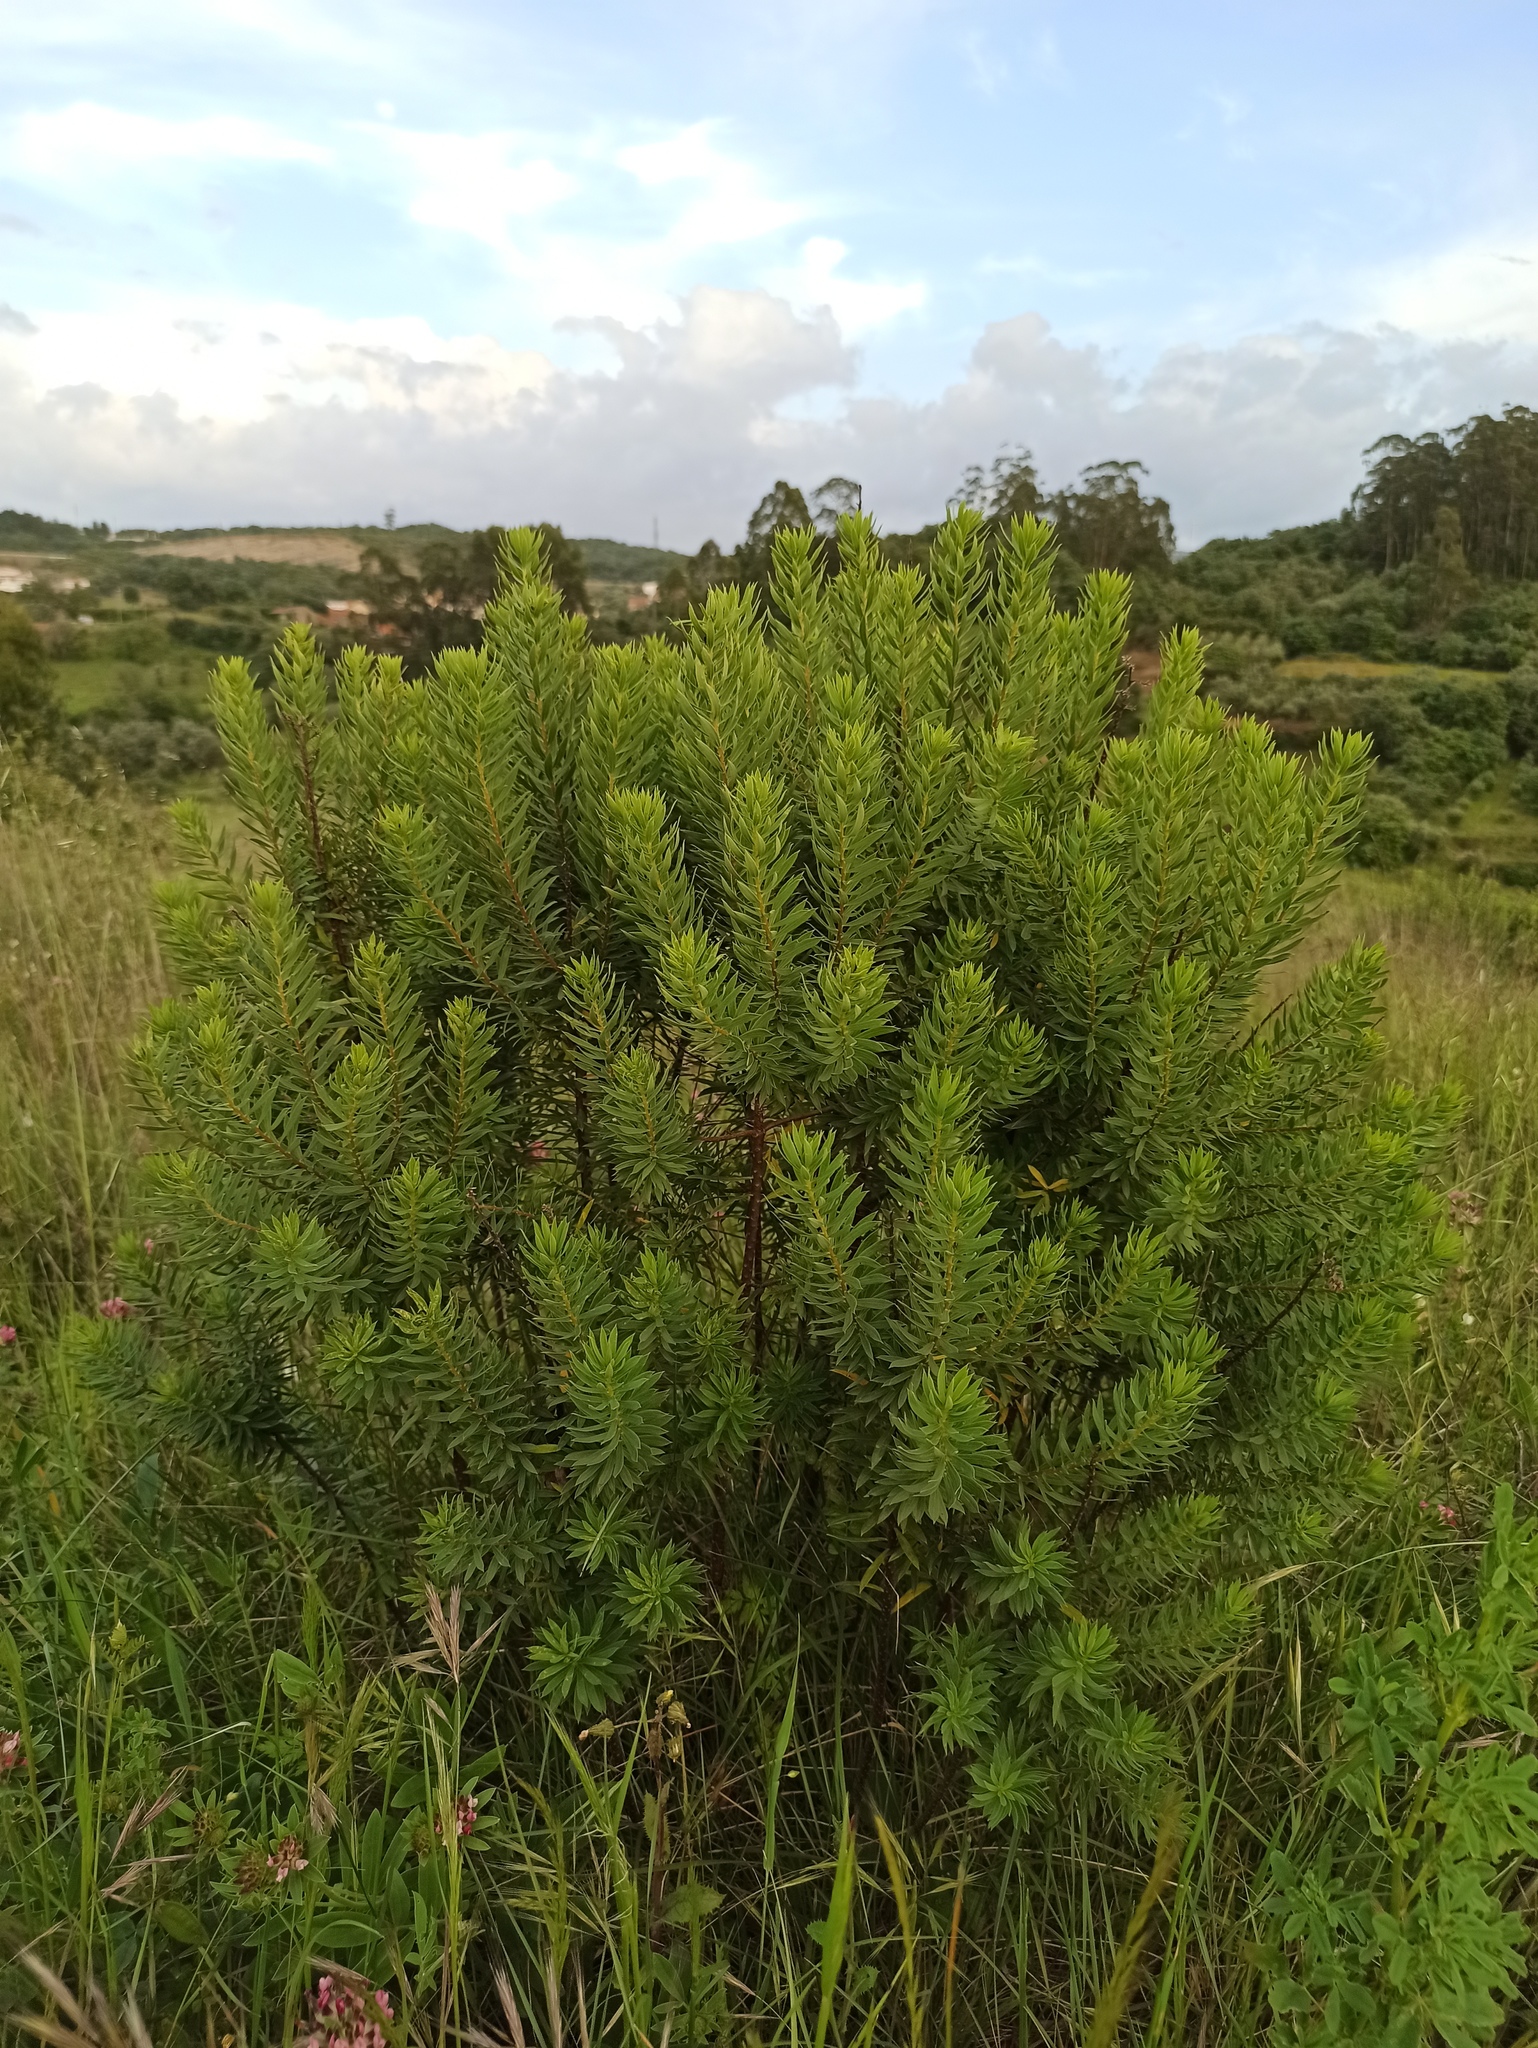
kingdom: Plantae
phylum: Tracheophyta
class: Magnoliopsida
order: Malvales
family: Thymelaeaceae
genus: Daphne
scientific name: Daphne gnidium
